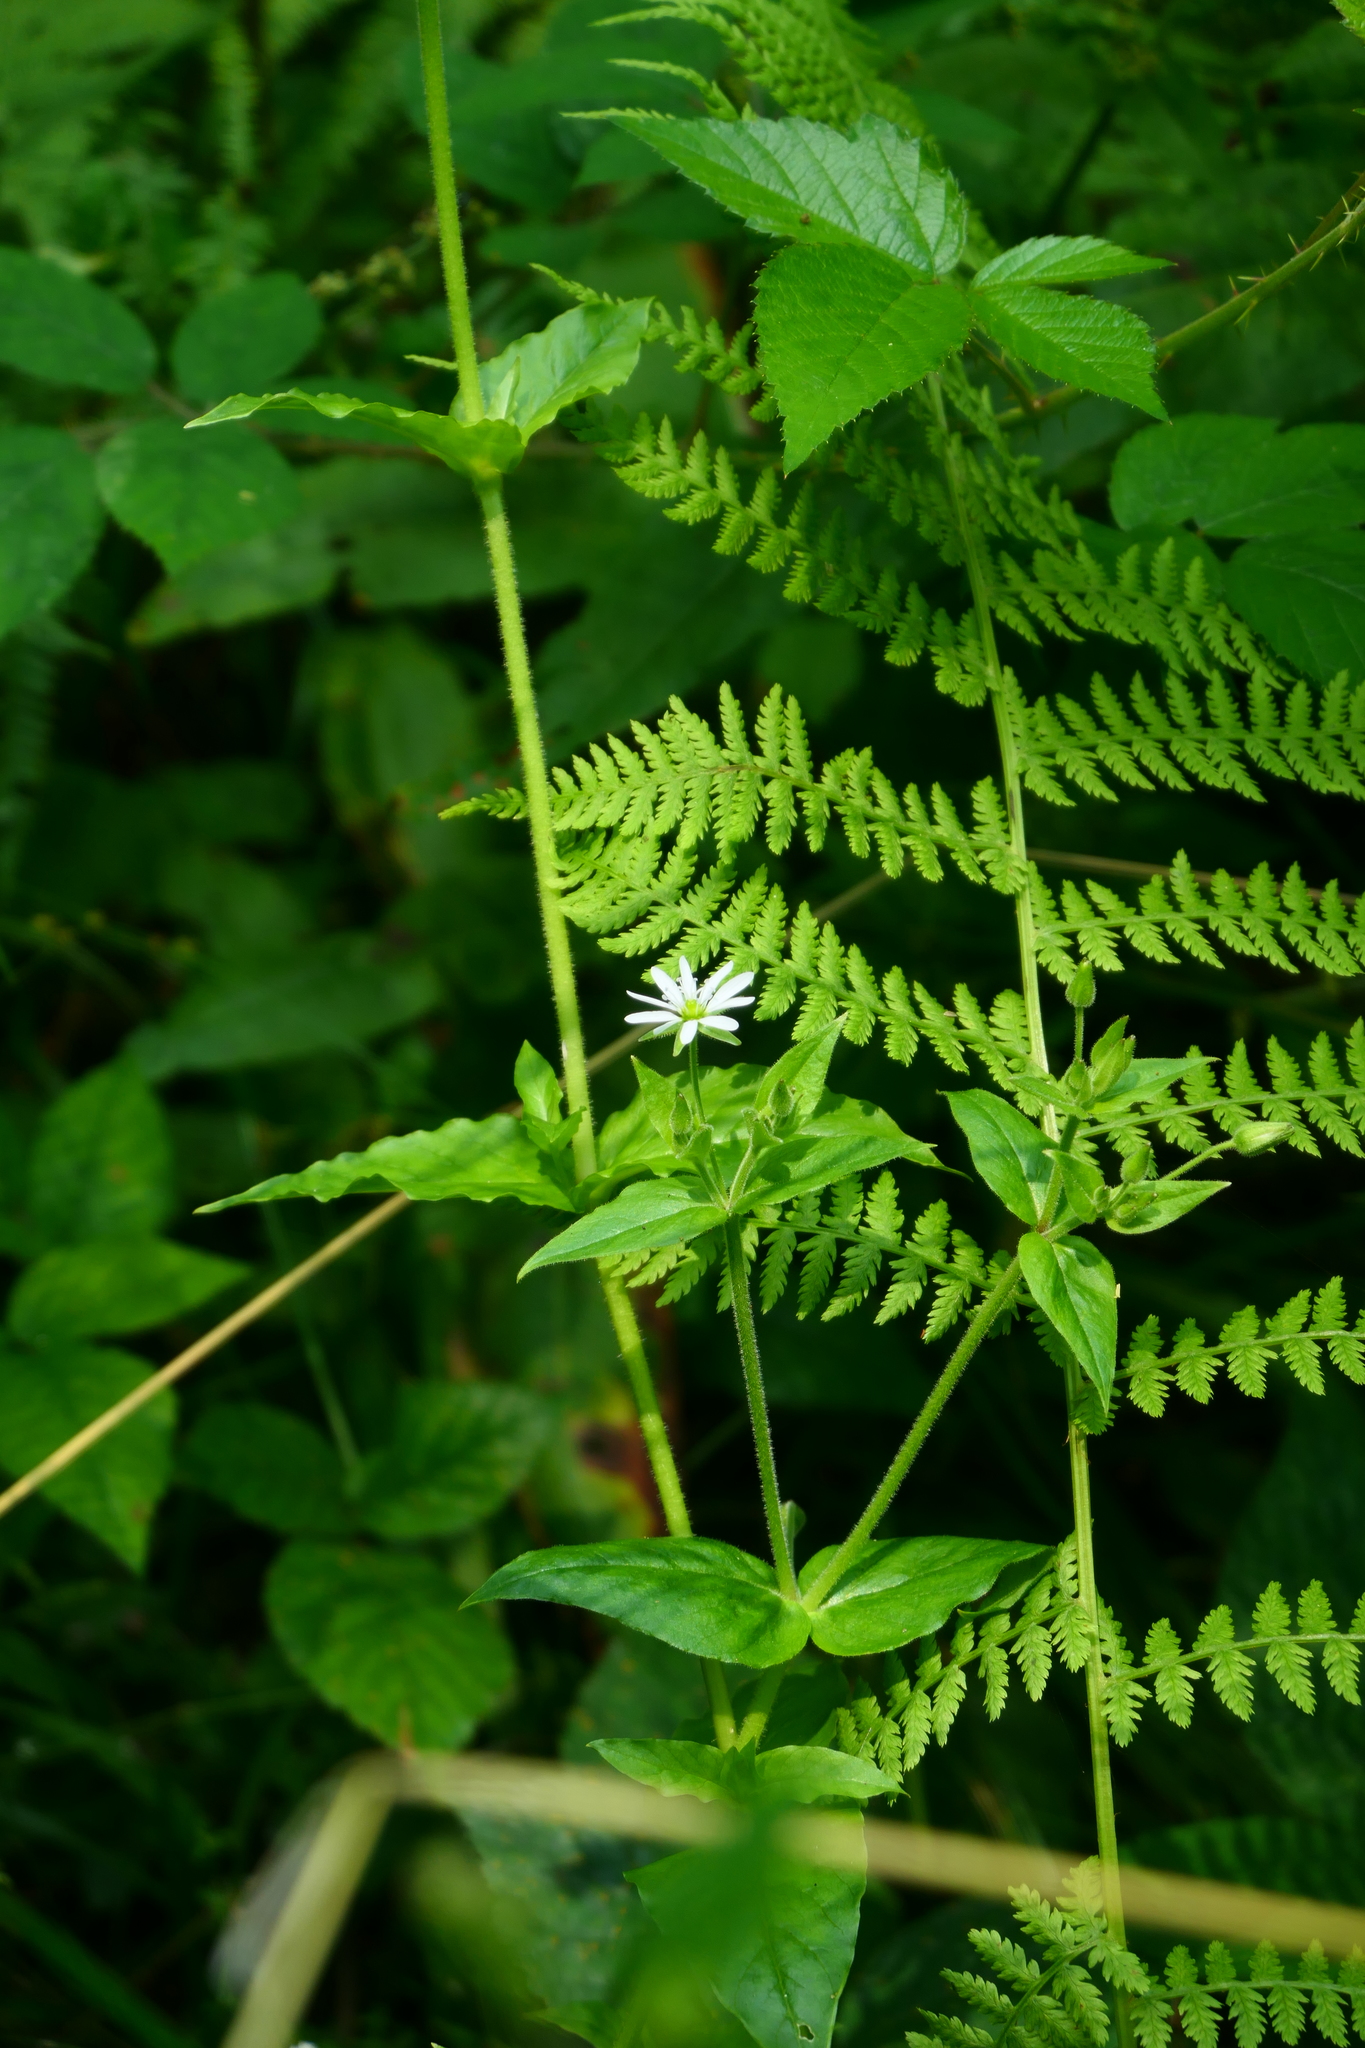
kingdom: Plantae
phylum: Tracheophyta
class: Magnoliopsida
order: Caryophyllales
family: Caryophyllaceae
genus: Stellaria
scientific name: Stellaria nemorum
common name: Wood stitchwort
